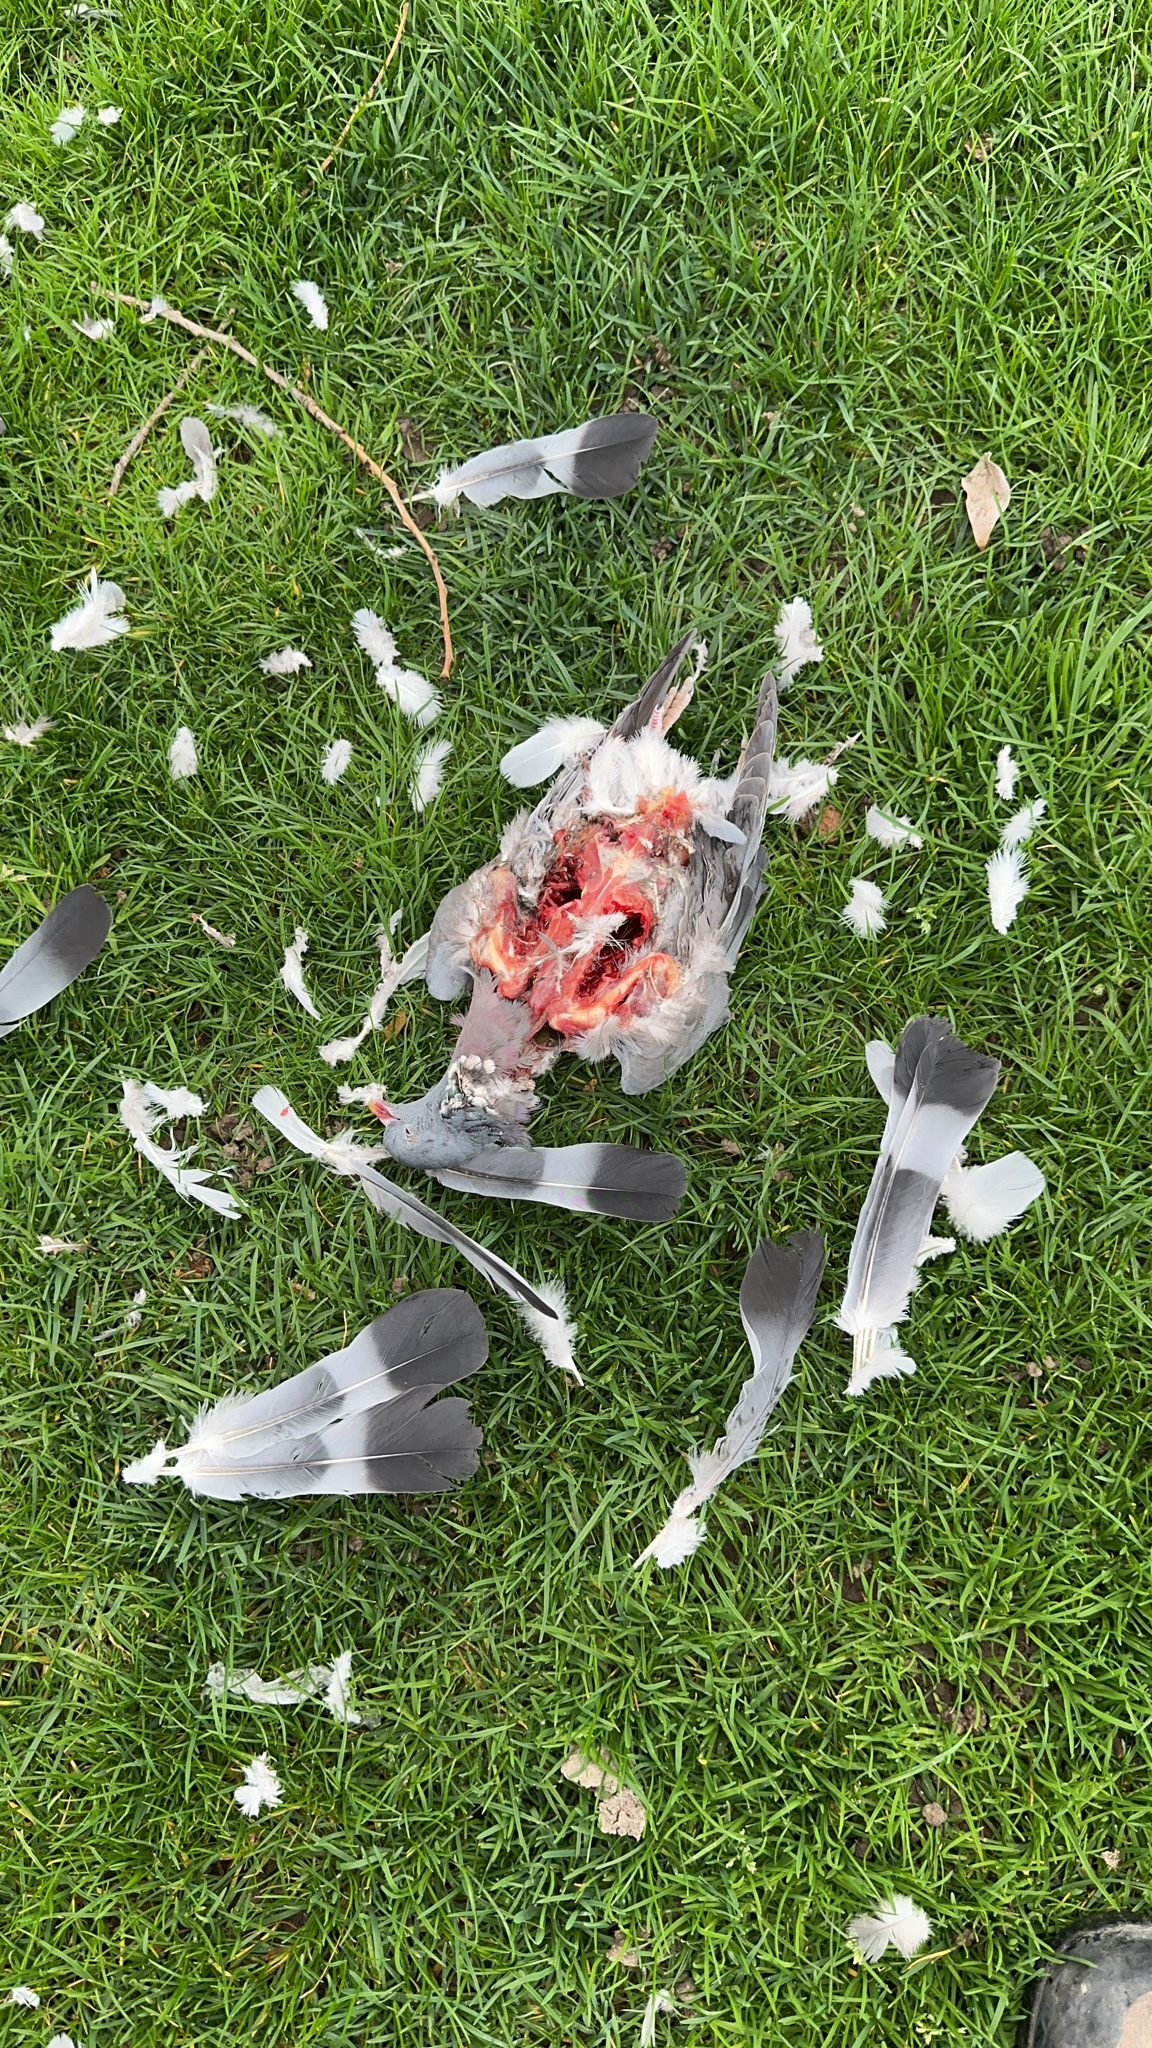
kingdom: Animalia
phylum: Chordata
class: Aves
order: Columbiformes
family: Columbidae
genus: Columba
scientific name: Columba palumbus
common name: Common wood pigeon
